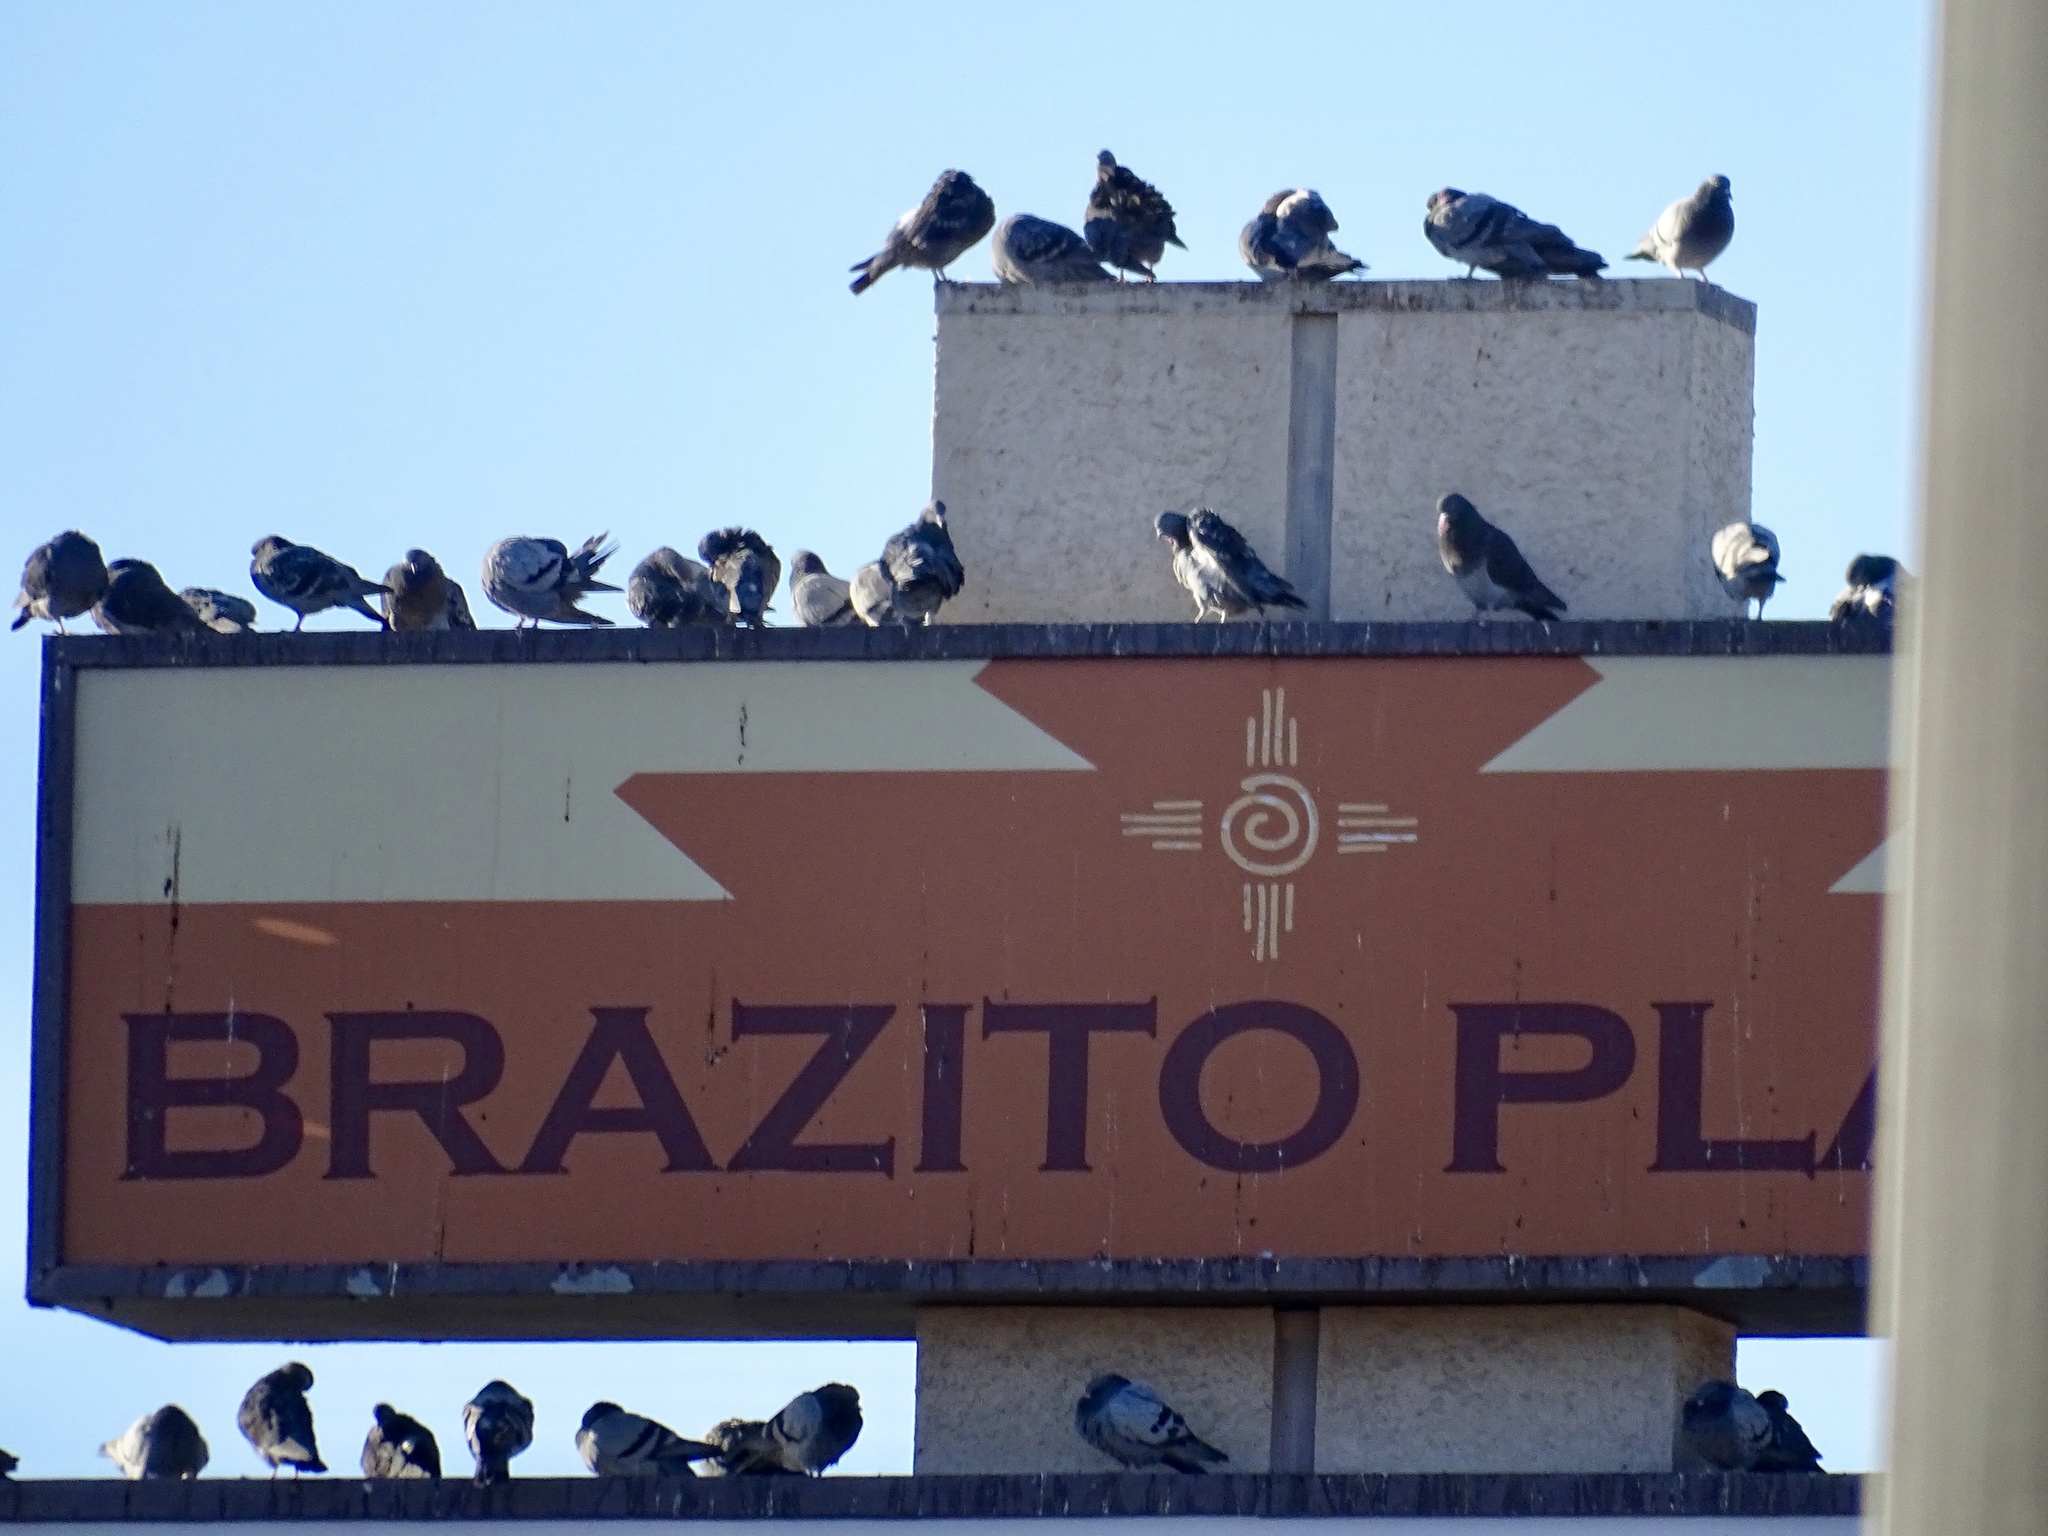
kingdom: Animalia
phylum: Chordata
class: Aves
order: Columbiformes
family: Columbidae
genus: Columba
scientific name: Columba livia
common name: Rock pigeon
